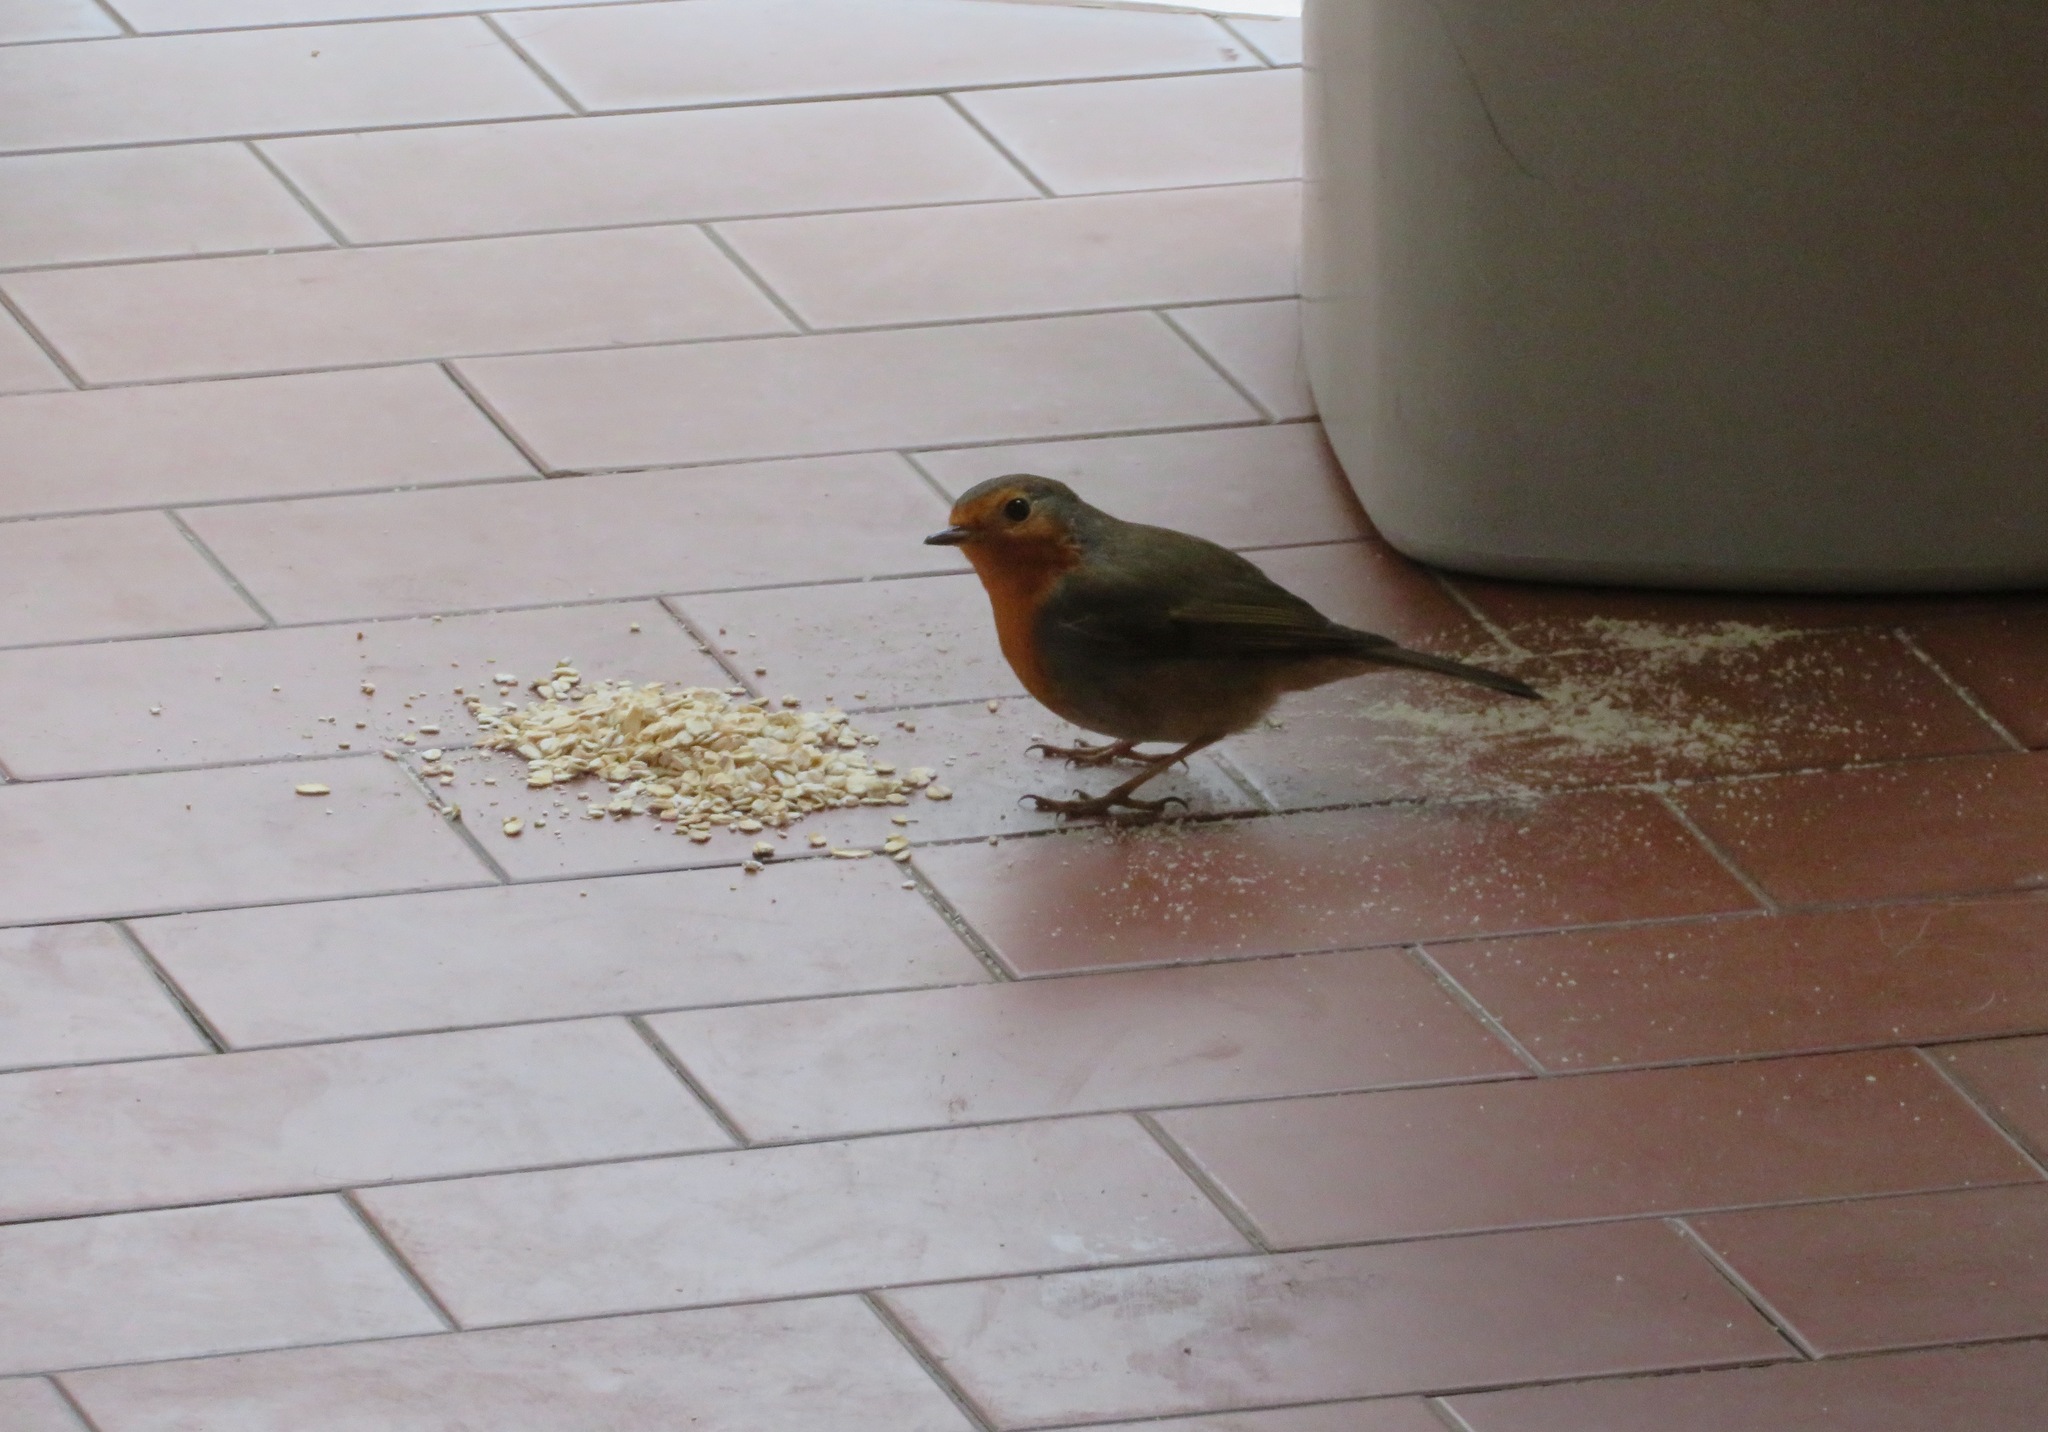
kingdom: Animalia
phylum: Chordata
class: Aves
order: Passeriformes
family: Muscicapidae
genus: Erithacus
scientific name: Erithacus rubecula
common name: European robin
